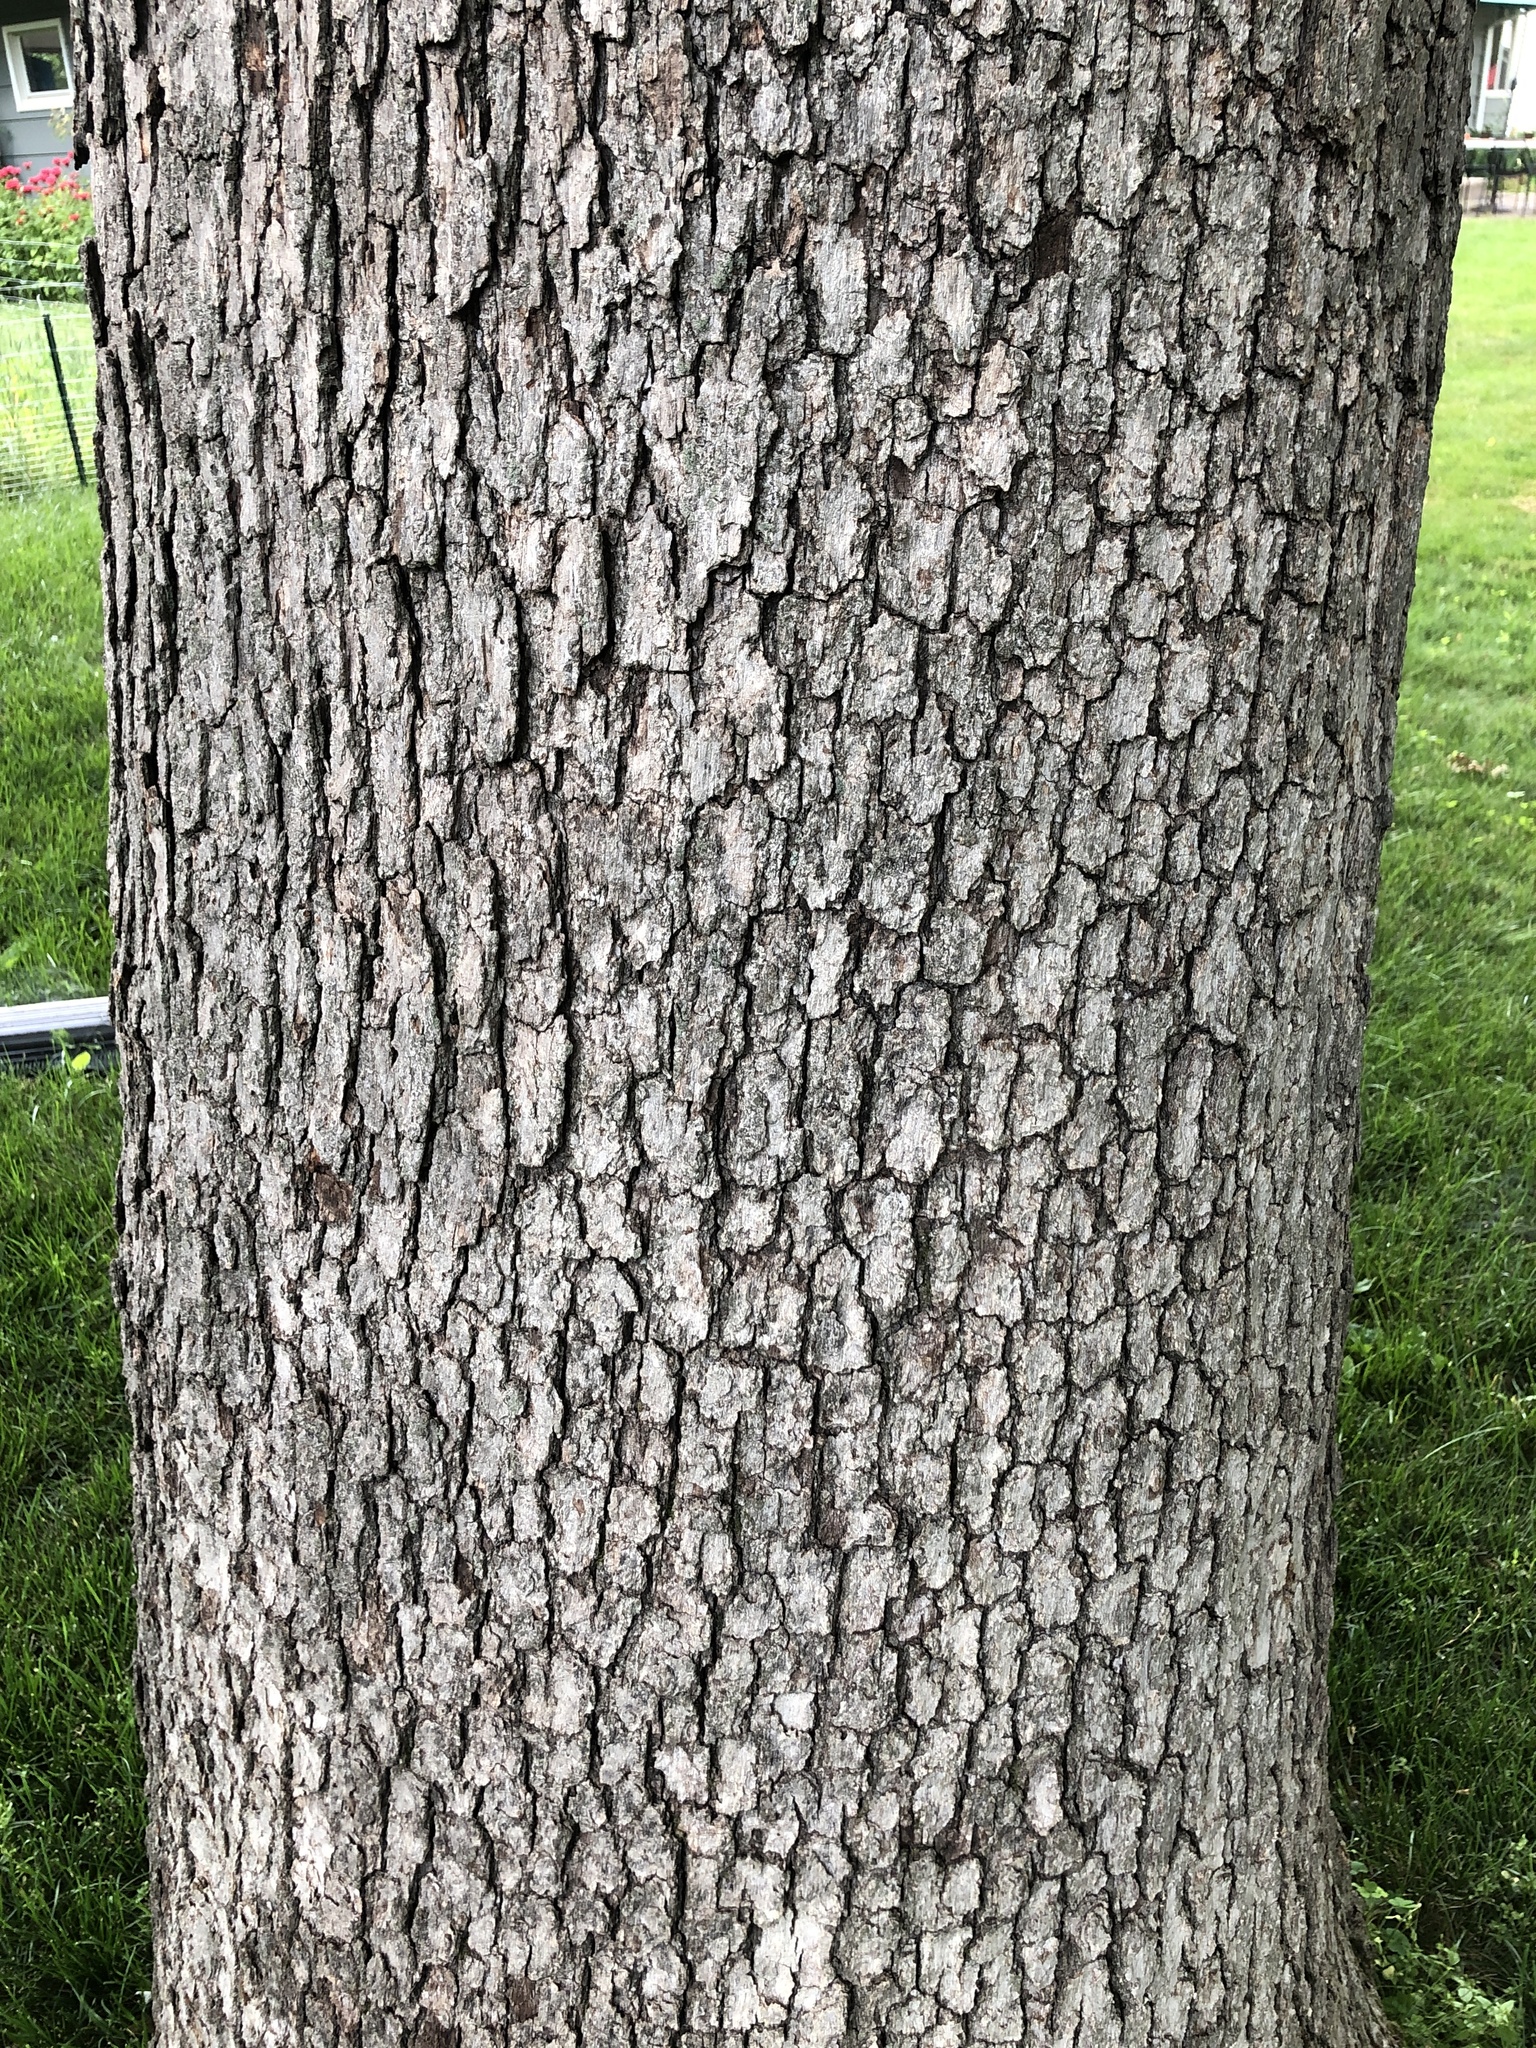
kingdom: Plantae
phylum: Tracheophyta
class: Magnoliopsida
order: Fagales
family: Fagaceae
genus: Quercus
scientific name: Quercus alba
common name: White oak
